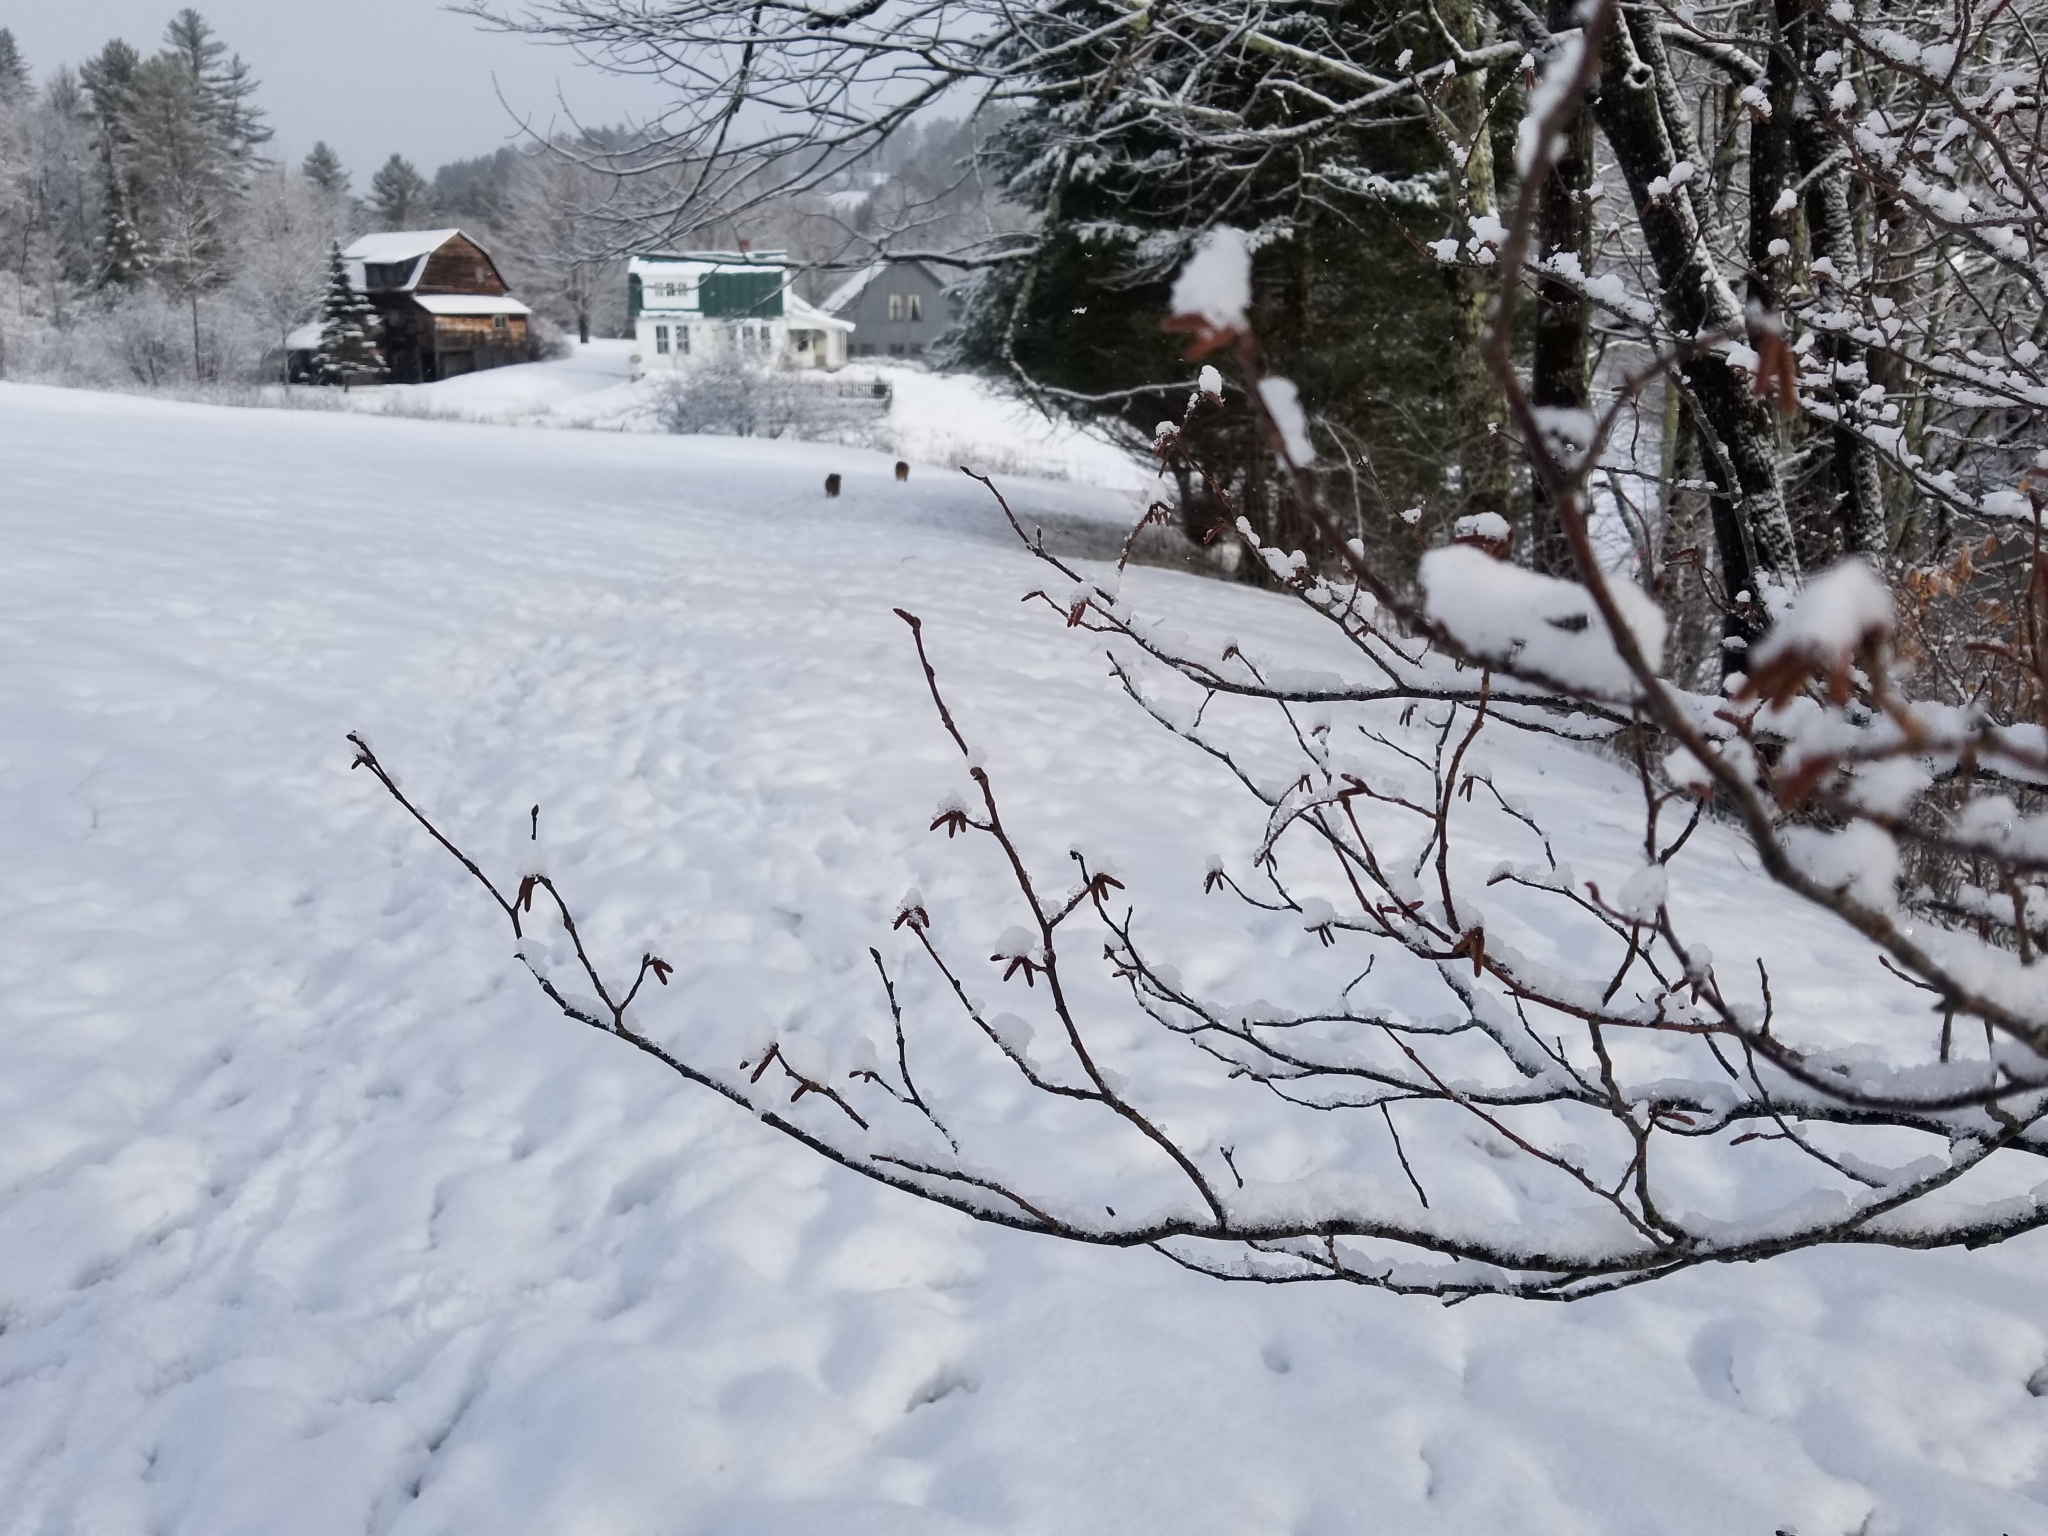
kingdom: Plantae
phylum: Tracheophyta
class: Magnoliopsida
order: Fagales
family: Betulaceae
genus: Alnus
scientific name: Alnus incana
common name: Grey alder
